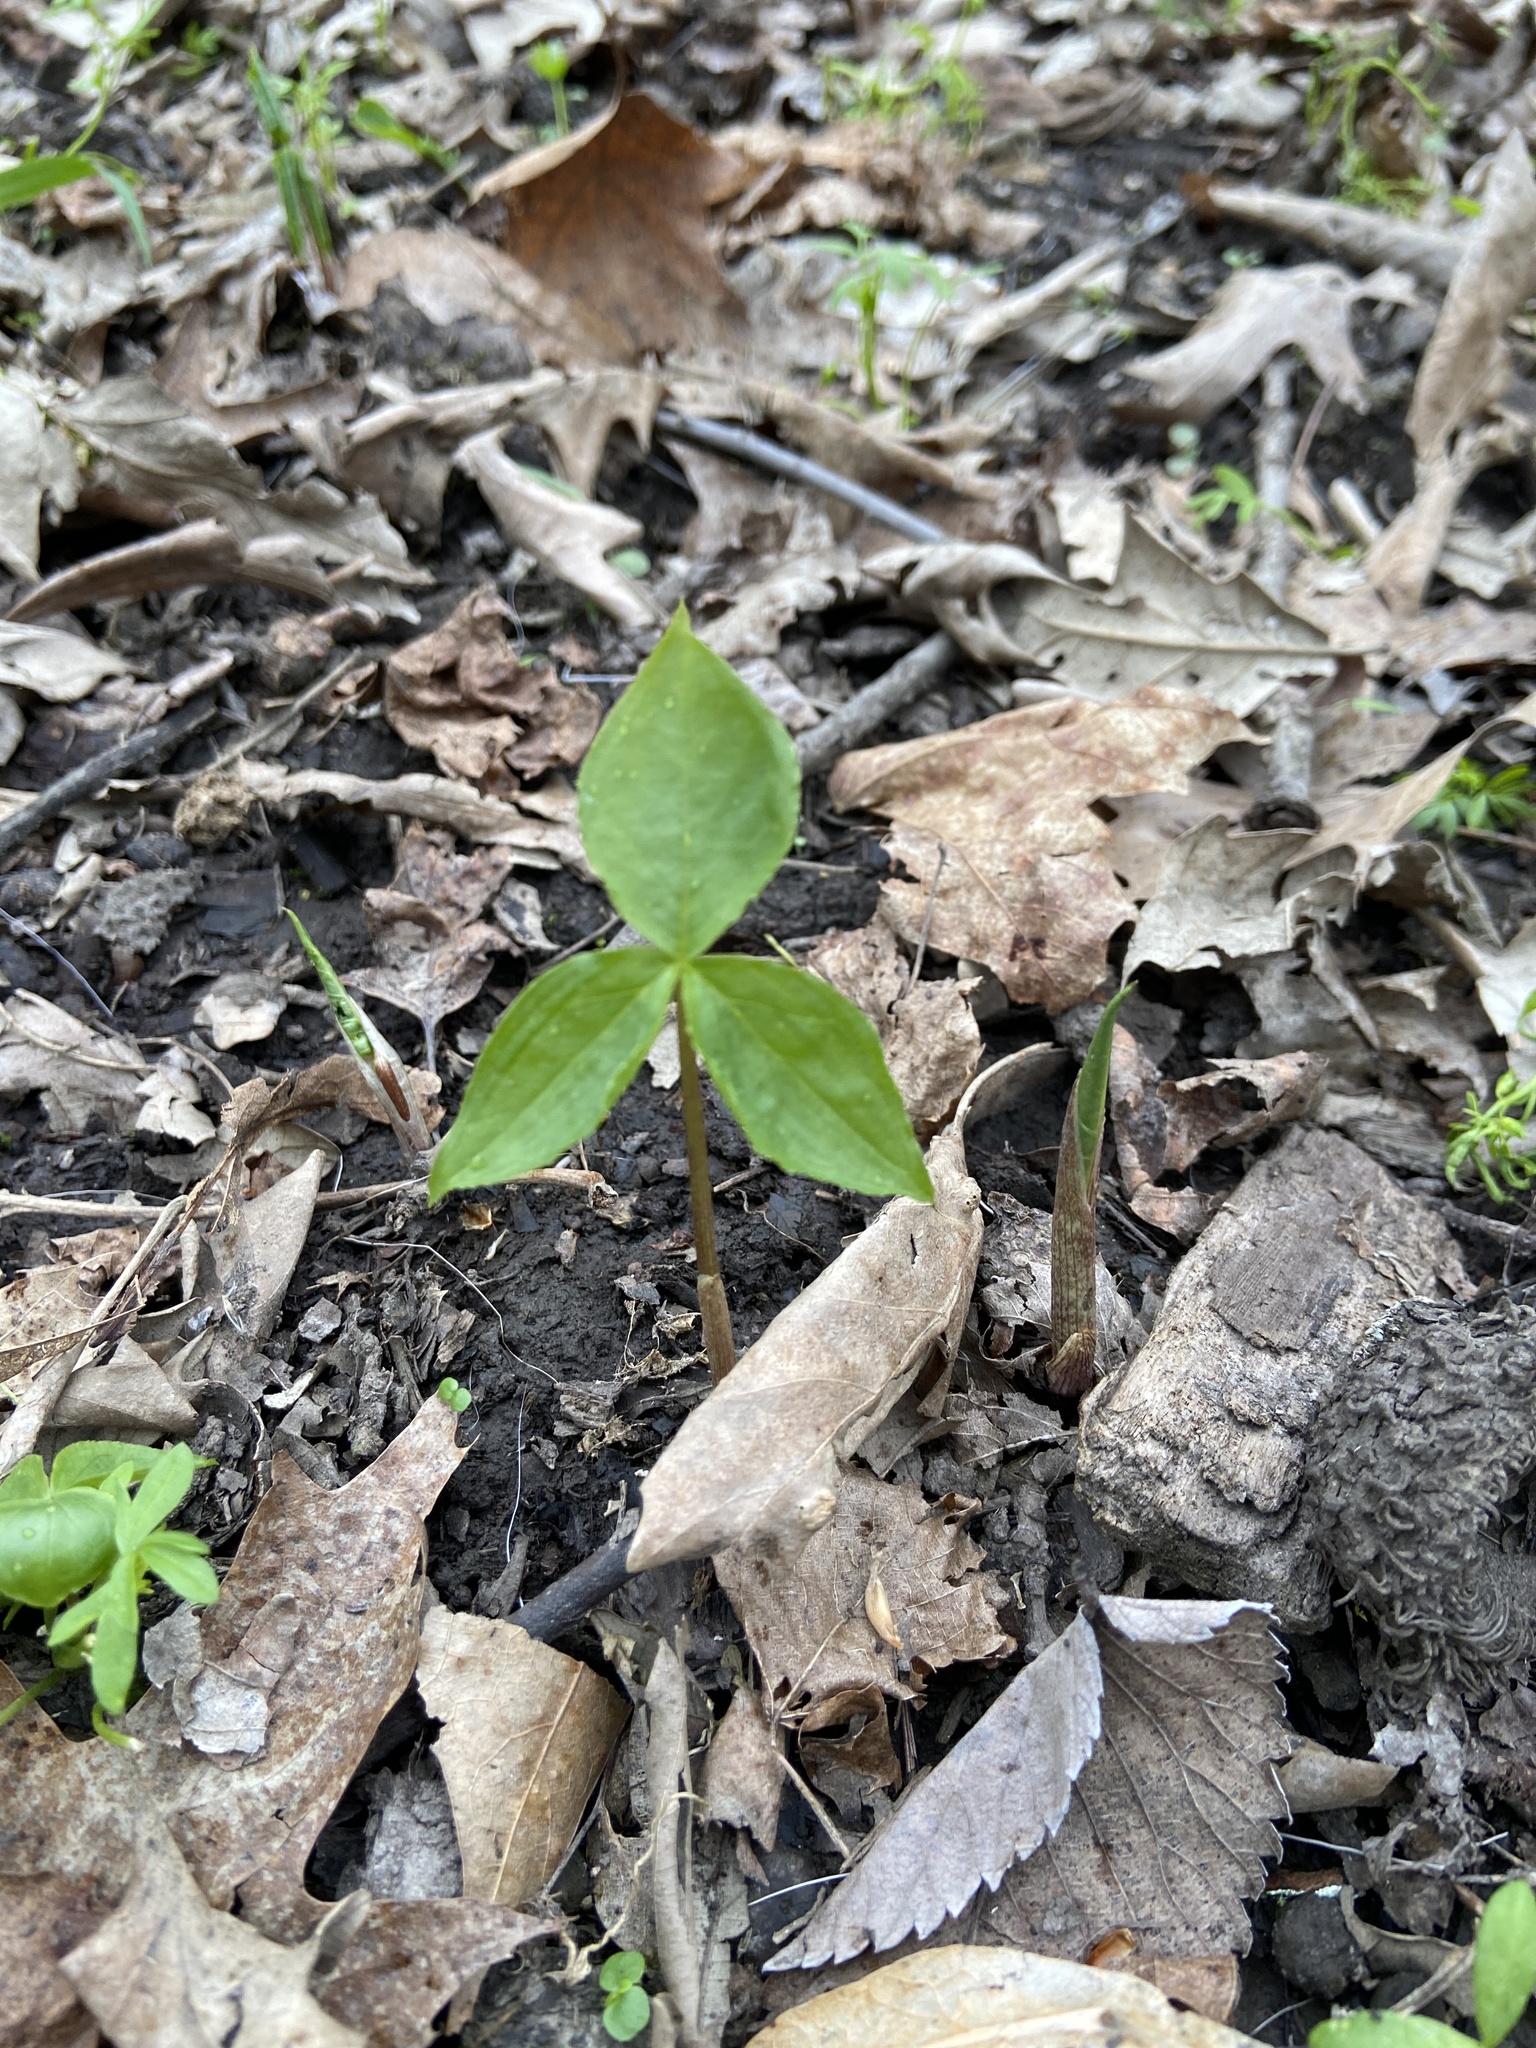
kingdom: Plantae
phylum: Tracheophyta
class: Liliopsida
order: Alismatales
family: Araceae
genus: Arisaema
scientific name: Arisaema triphyllum
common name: Jack-in-the-pulpit
